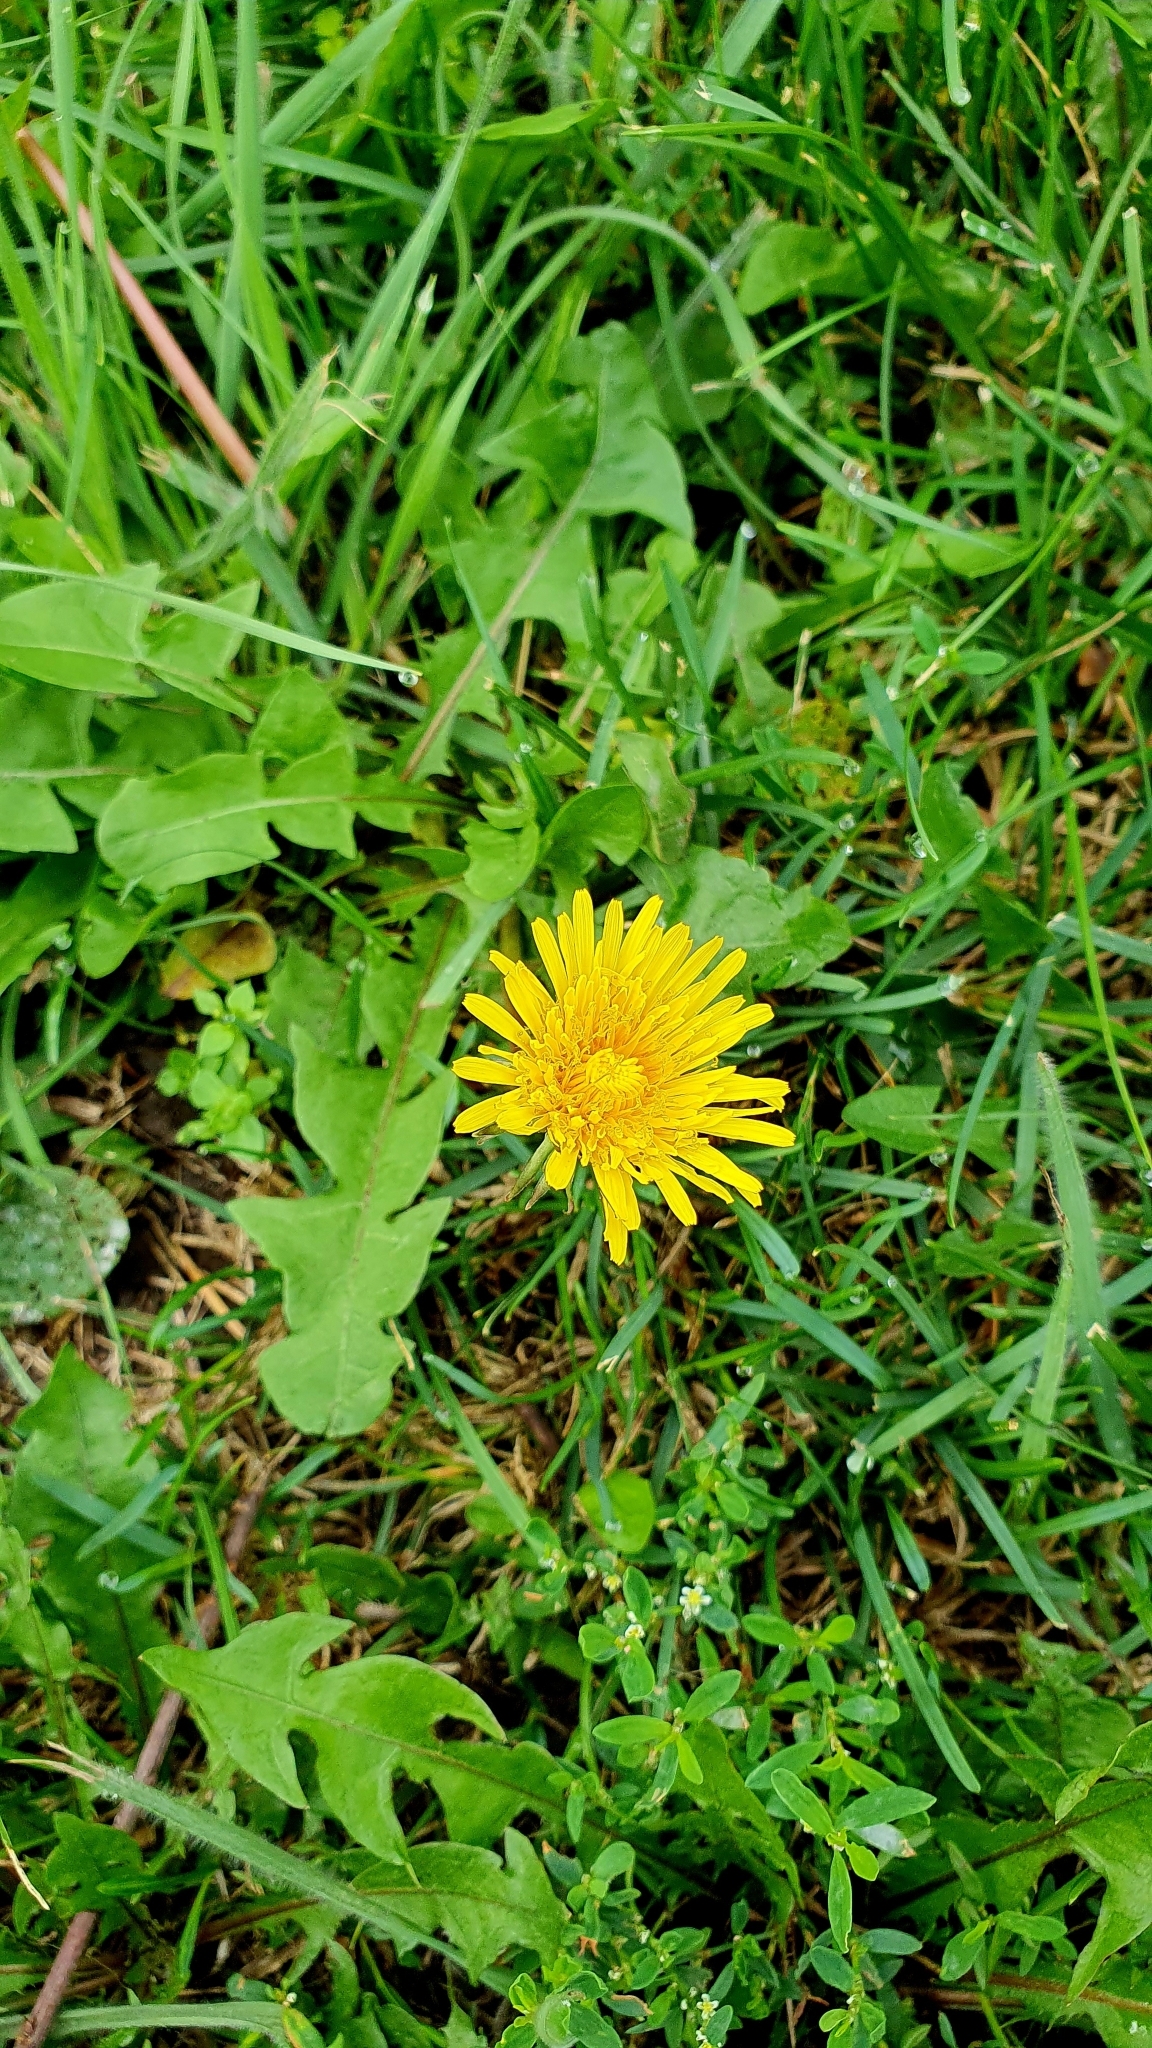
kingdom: Plantae
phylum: Tracheophyta
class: Magnoliopsida
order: Asterales
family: Asteraceae
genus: Taraxacum
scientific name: Taraxacum officinale
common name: Common dandelion
